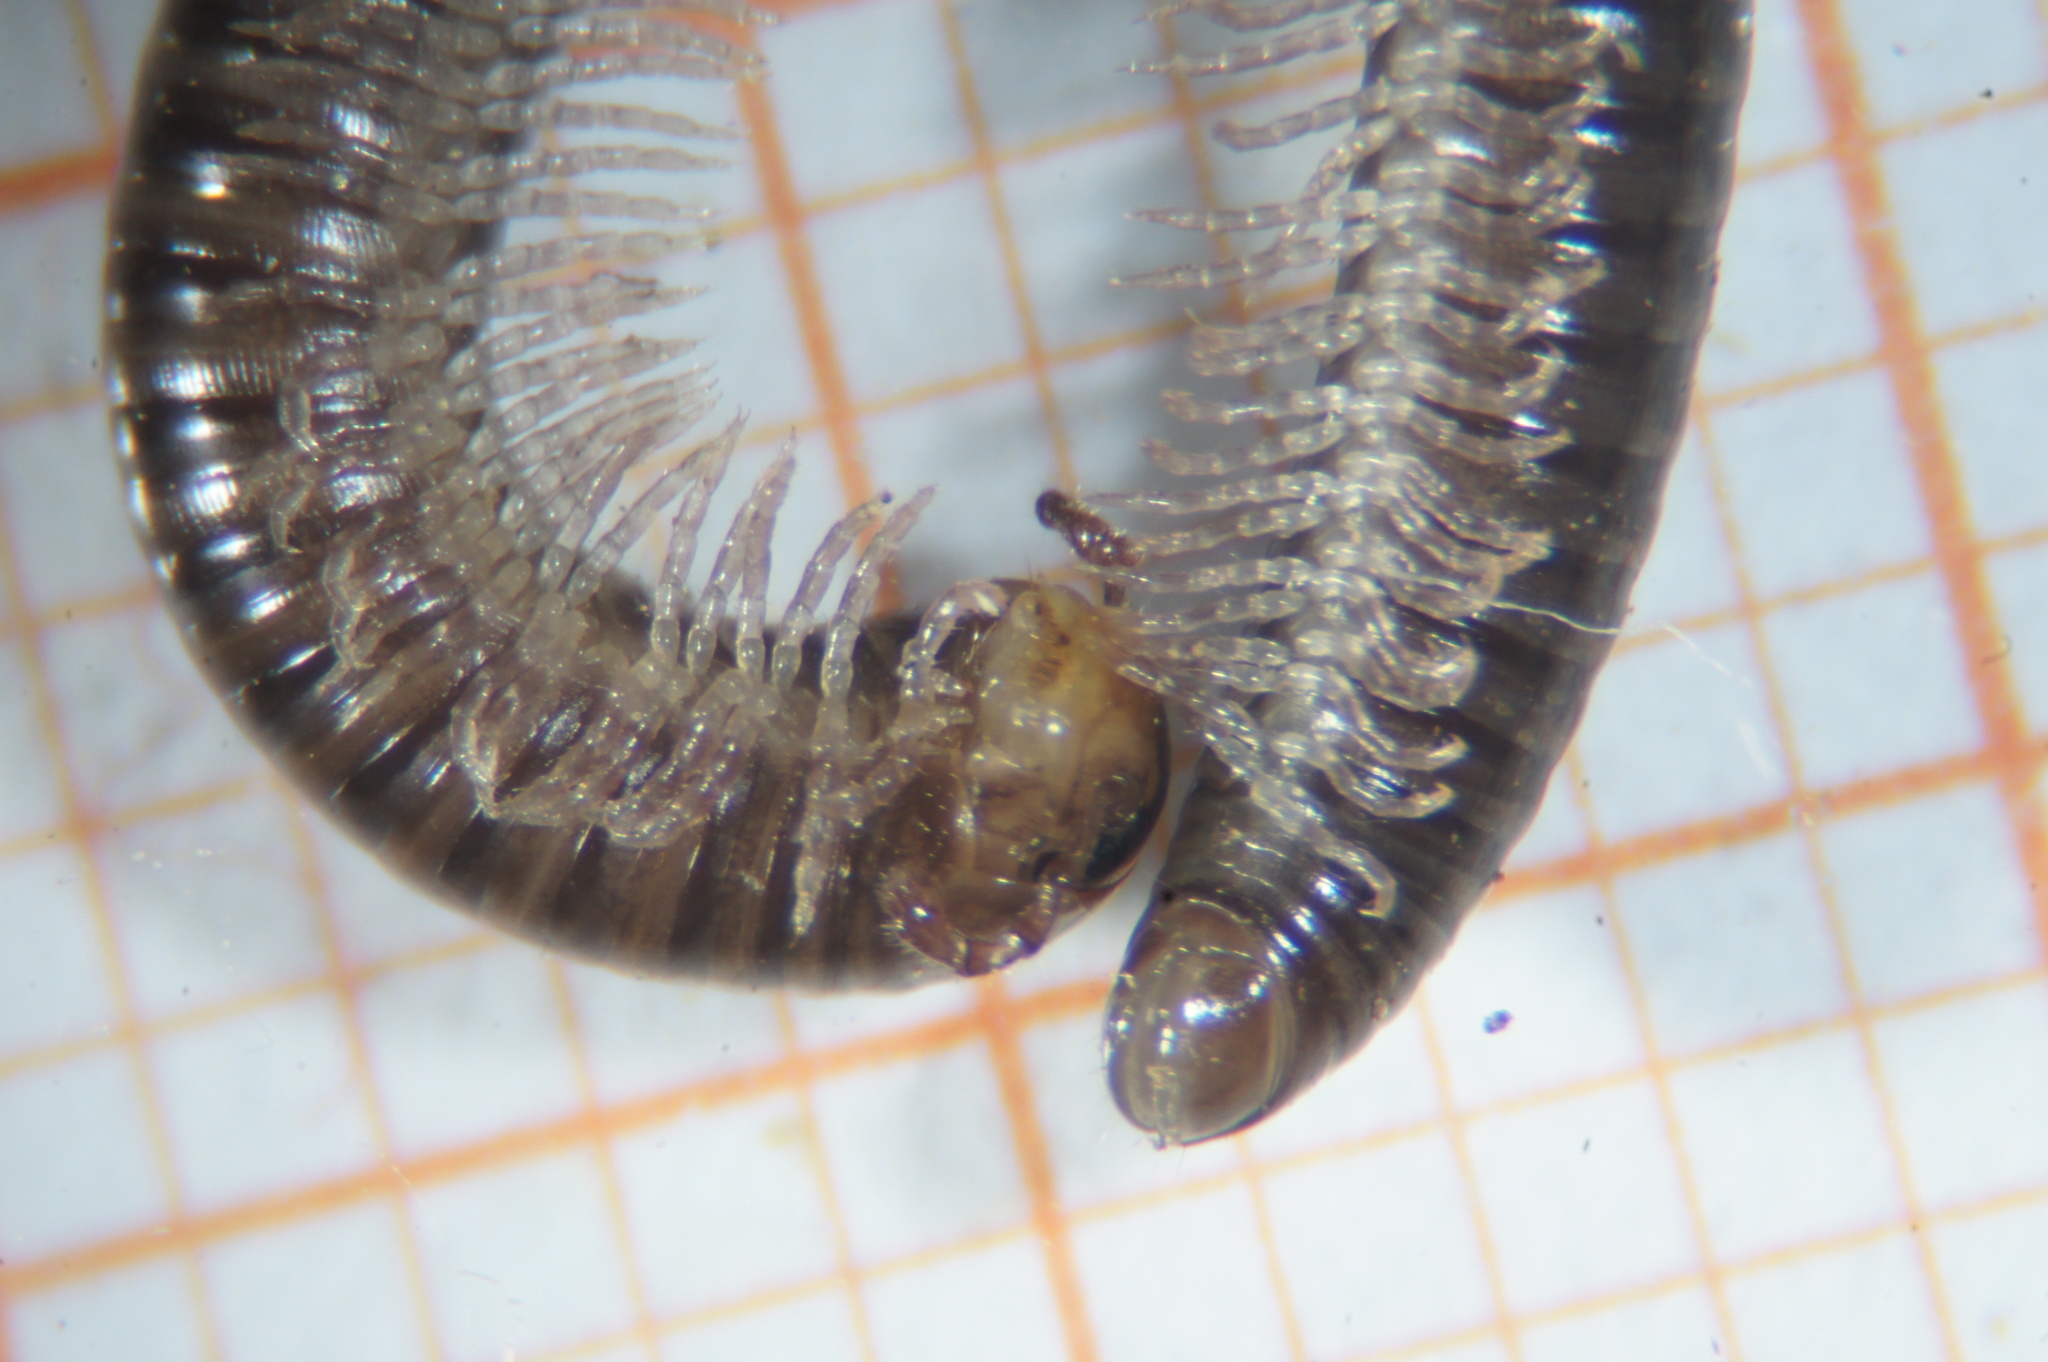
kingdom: Animalia
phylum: Arthropoda
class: Diplopoda
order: Julida
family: Julidae
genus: Cylindroiulus
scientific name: Cylindroiulus caeruleocinctus
